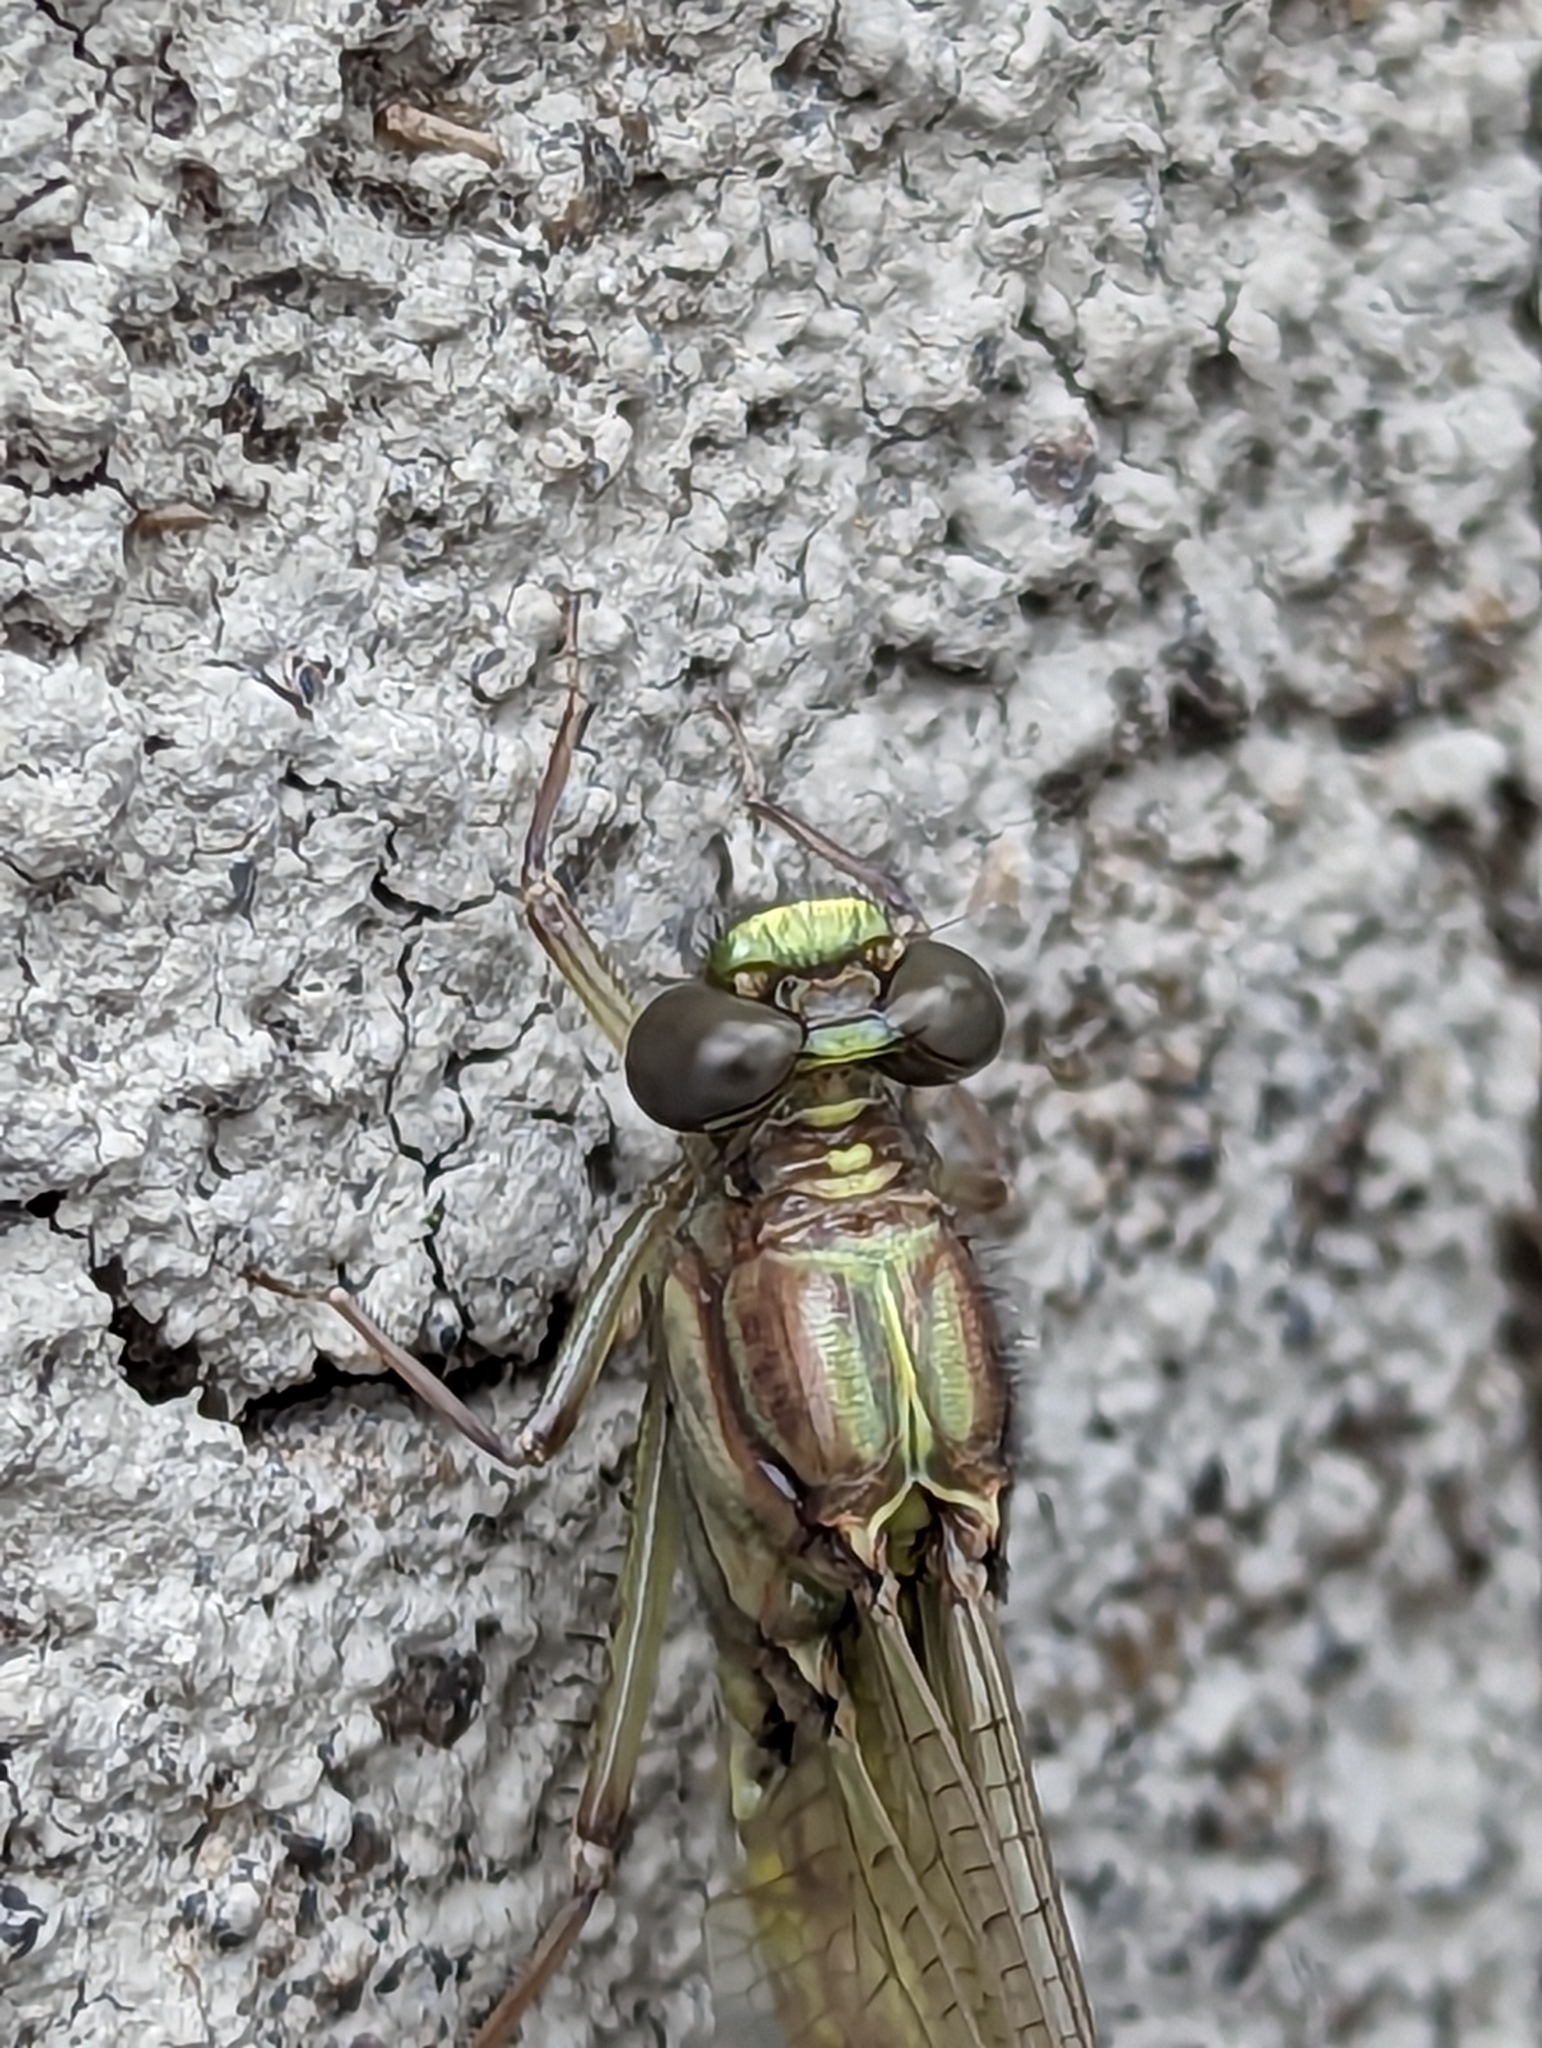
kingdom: Animalia
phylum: Arthropoda
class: Insecta
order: Odonata
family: Gomphidae
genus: Dromogomphus
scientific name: Dromogomphus spinosus
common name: Black-shouldered spinyleg
